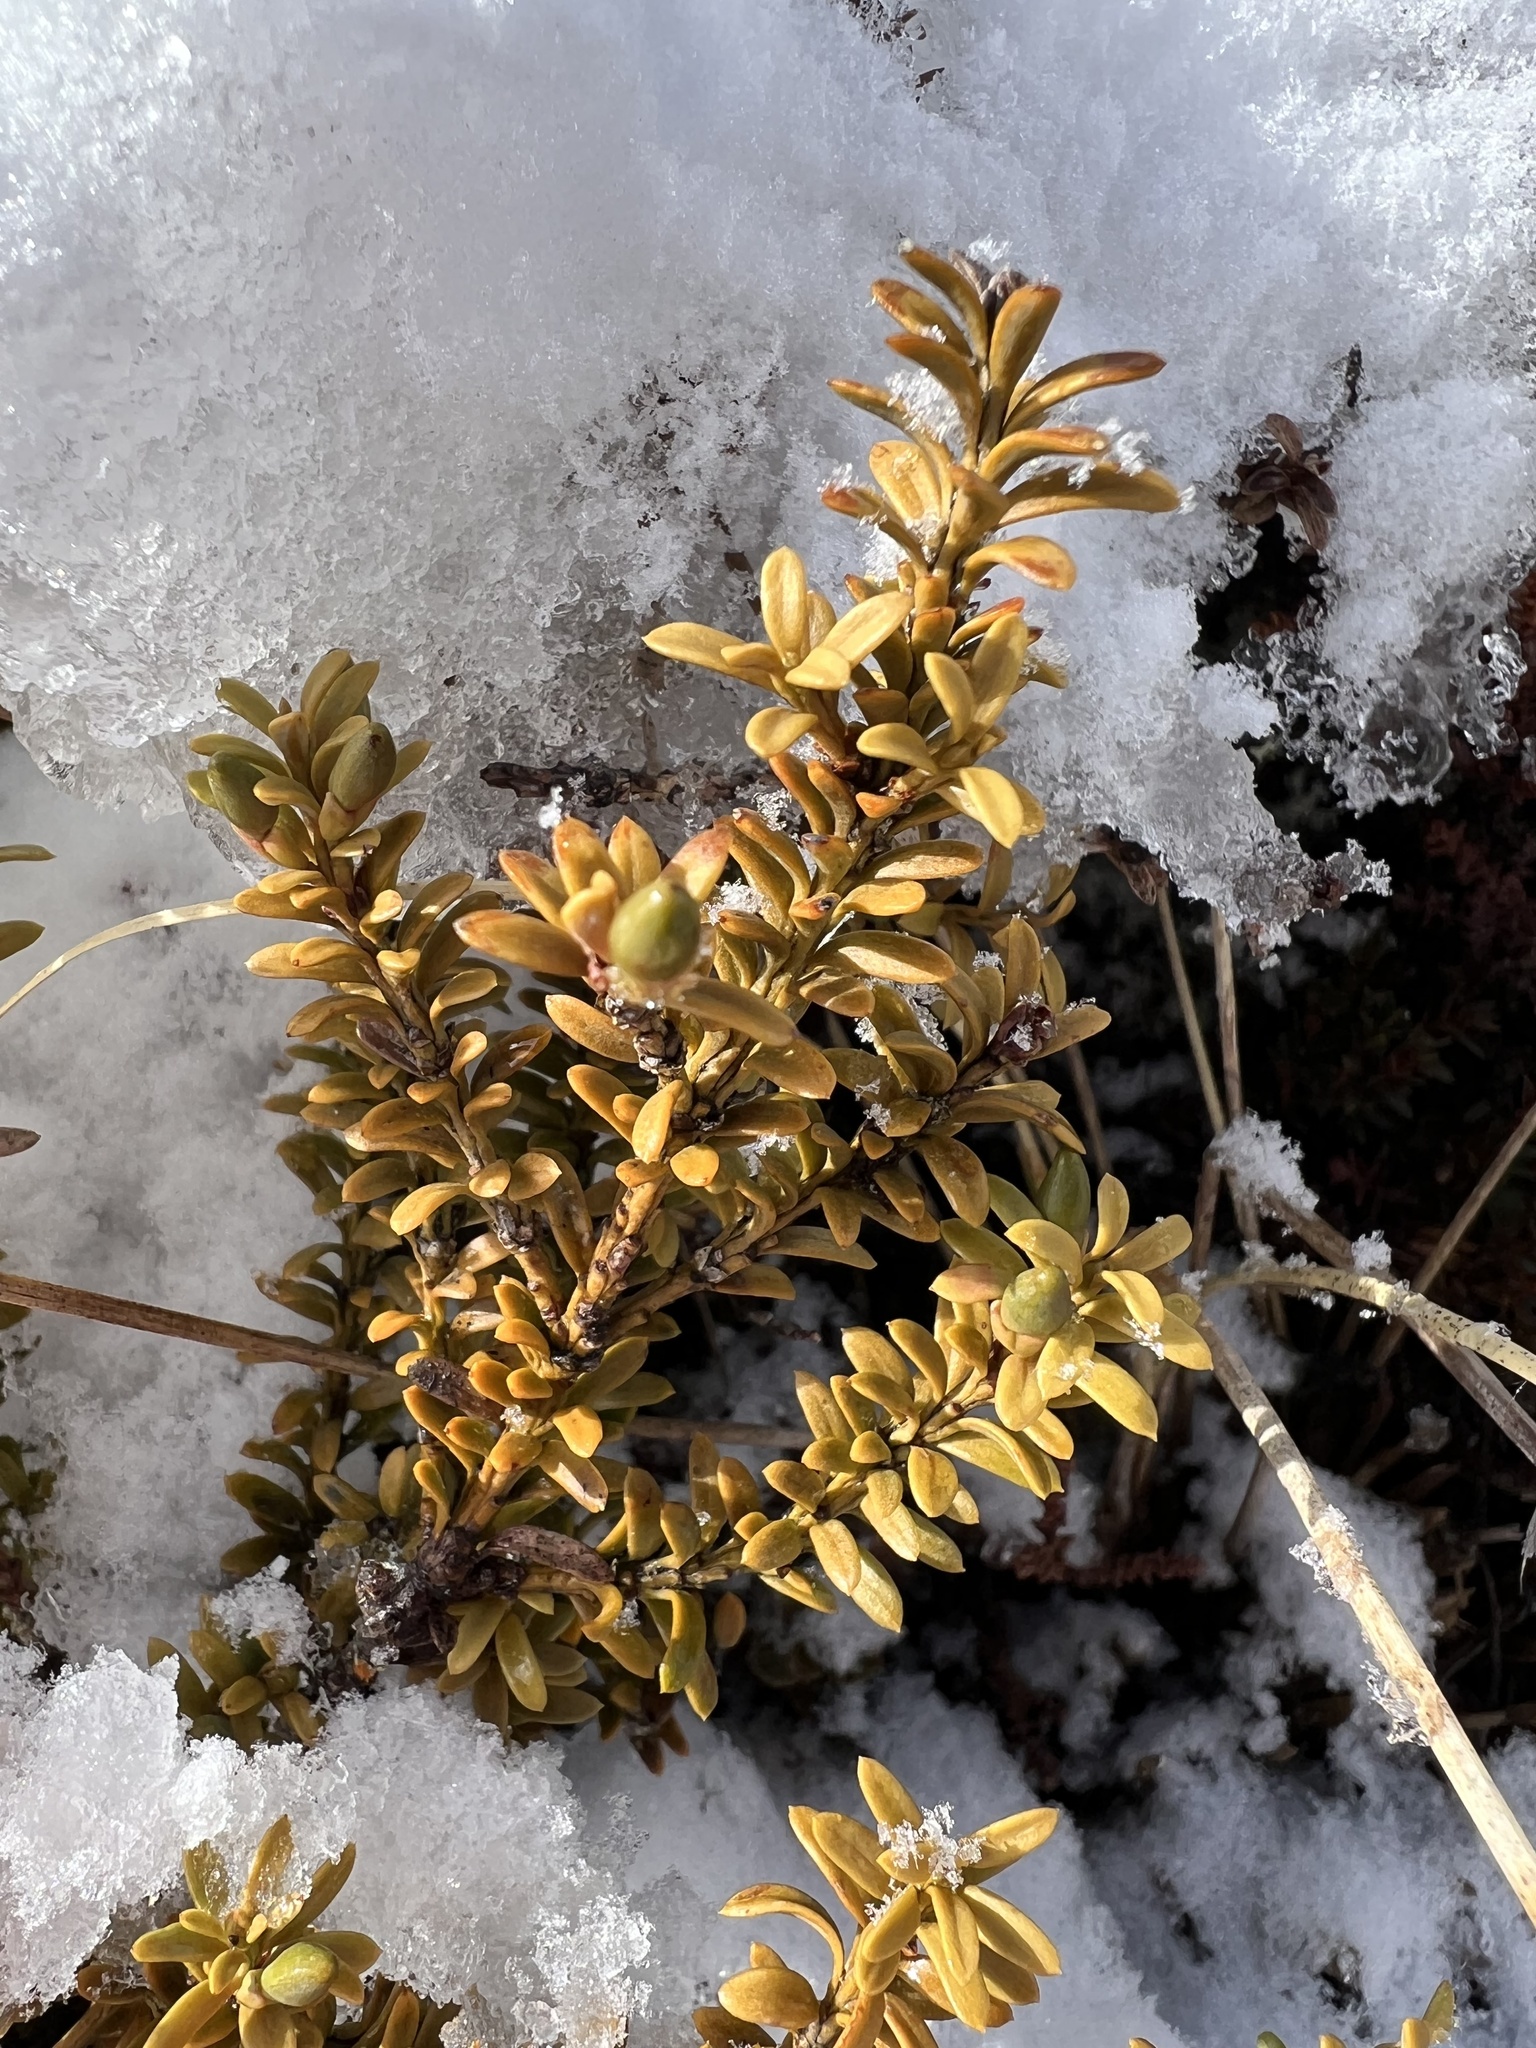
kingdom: Plantae
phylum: Tracheophyta
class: Pinopsida
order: Pinales
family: Podocarpaceae
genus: Podocarpus
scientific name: Podocarpus nivalis
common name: Alpine totara
